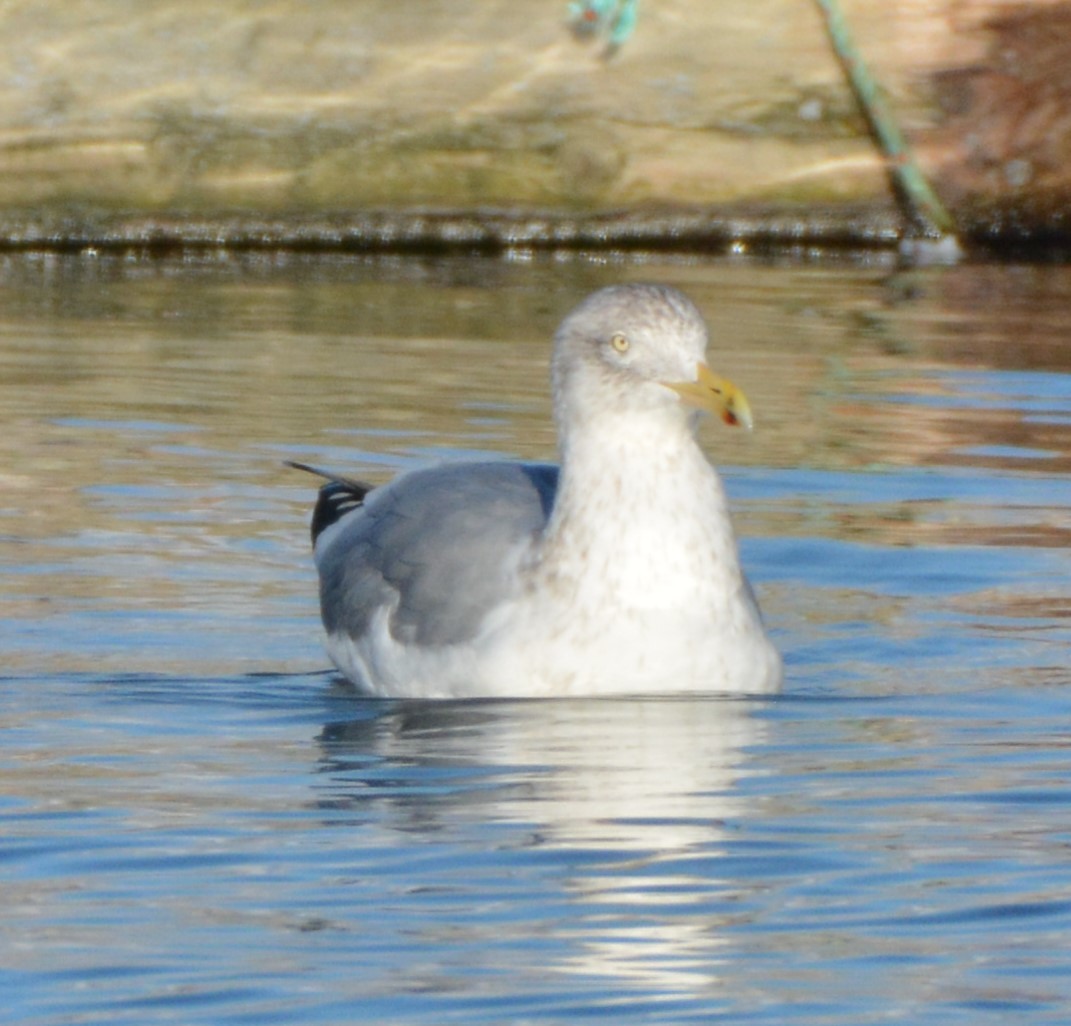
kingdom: Animalia
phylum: Chordata
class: Aves
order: Charadriiformes
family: Laridae
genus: Larus
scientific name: Larus argentatus
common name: Herring gull
